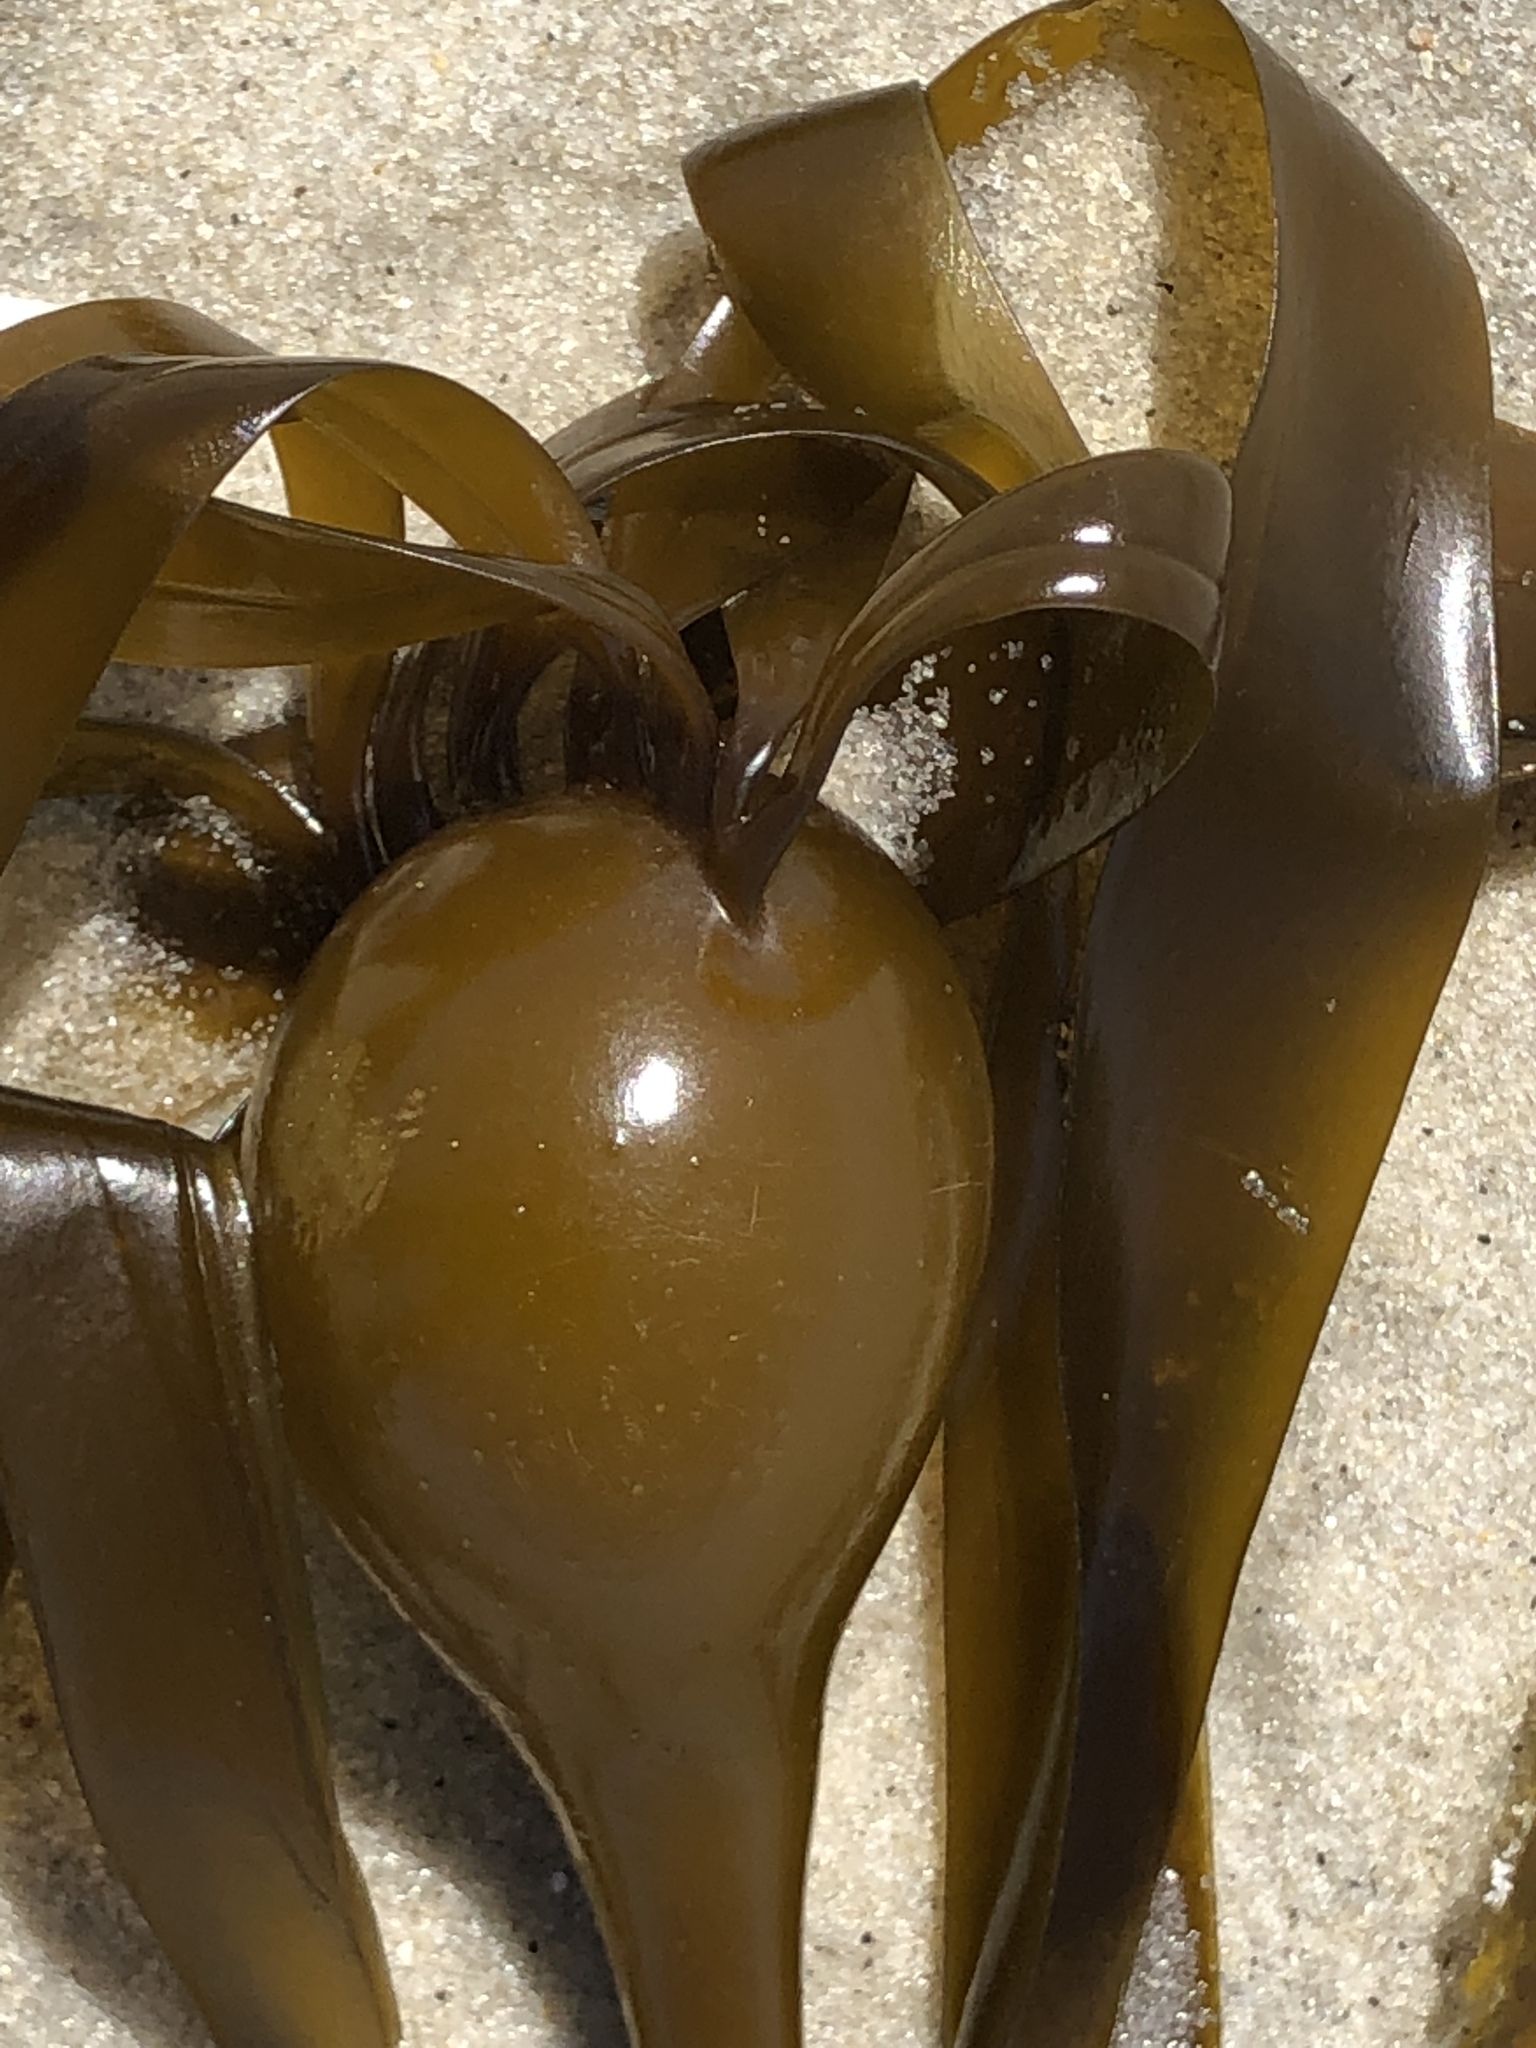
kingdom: Chromista
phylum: Ochrophyta
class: Phaeophyceae
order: Laminariales
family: Laminariaceae
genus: Nereocystis
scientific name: Nereocystis luetkeana
